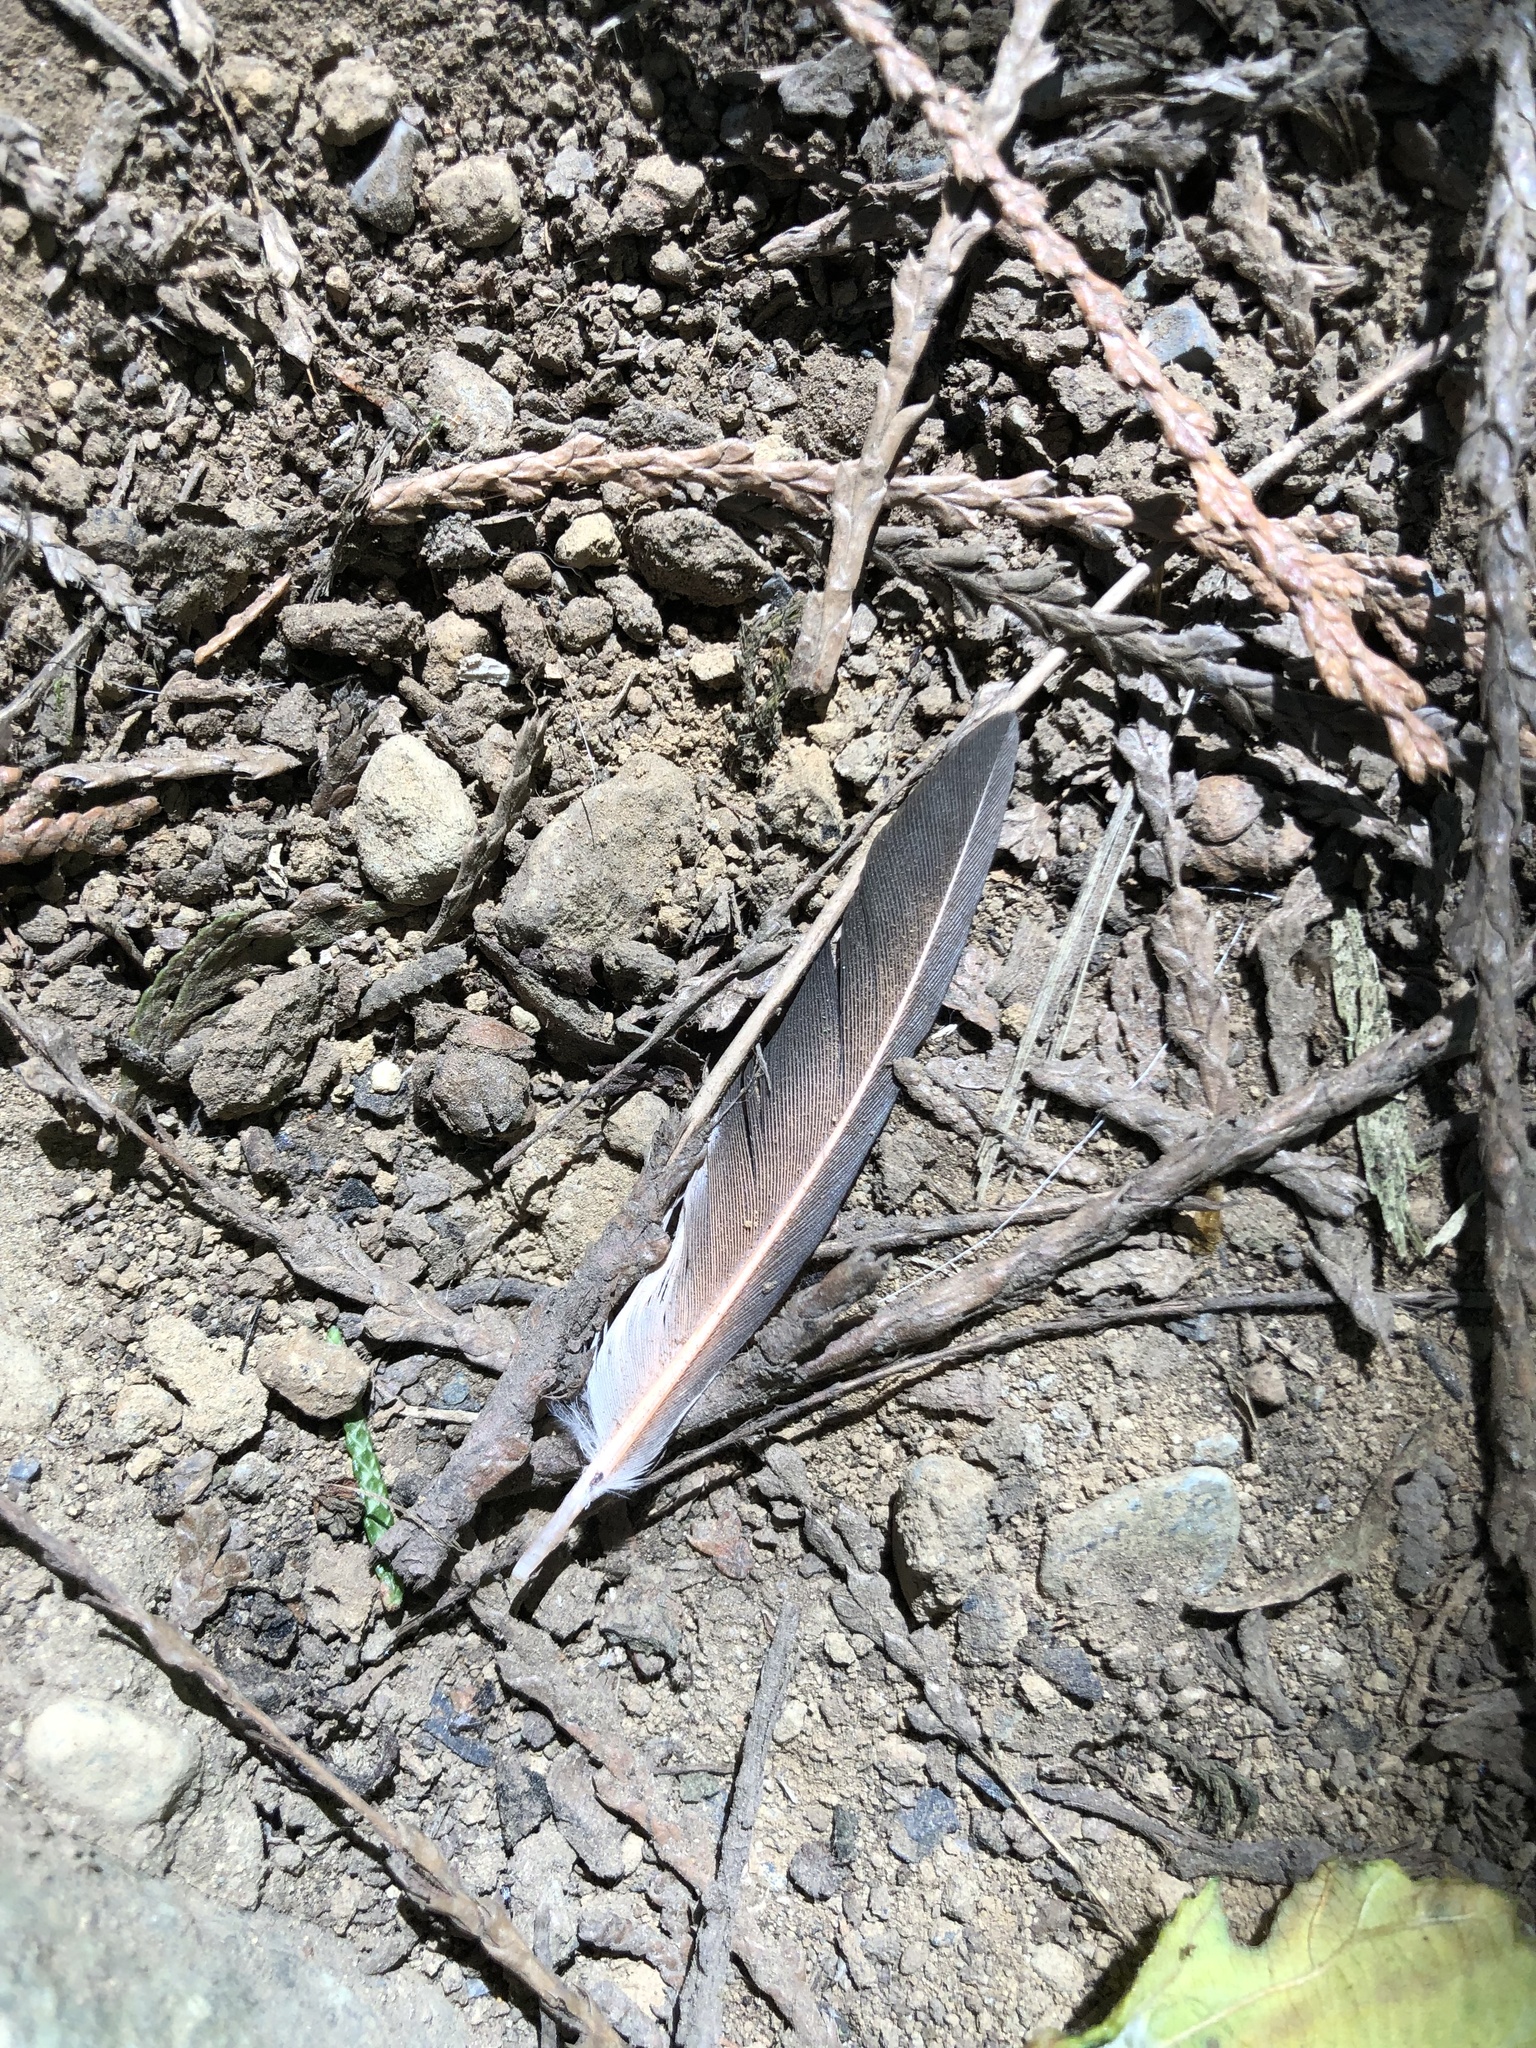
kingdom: Animalia
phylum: Chordata
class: Aves
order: Piciformes
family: Picidae
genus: Colaptes
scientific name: Colaptes auratus
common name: Northern flicker
